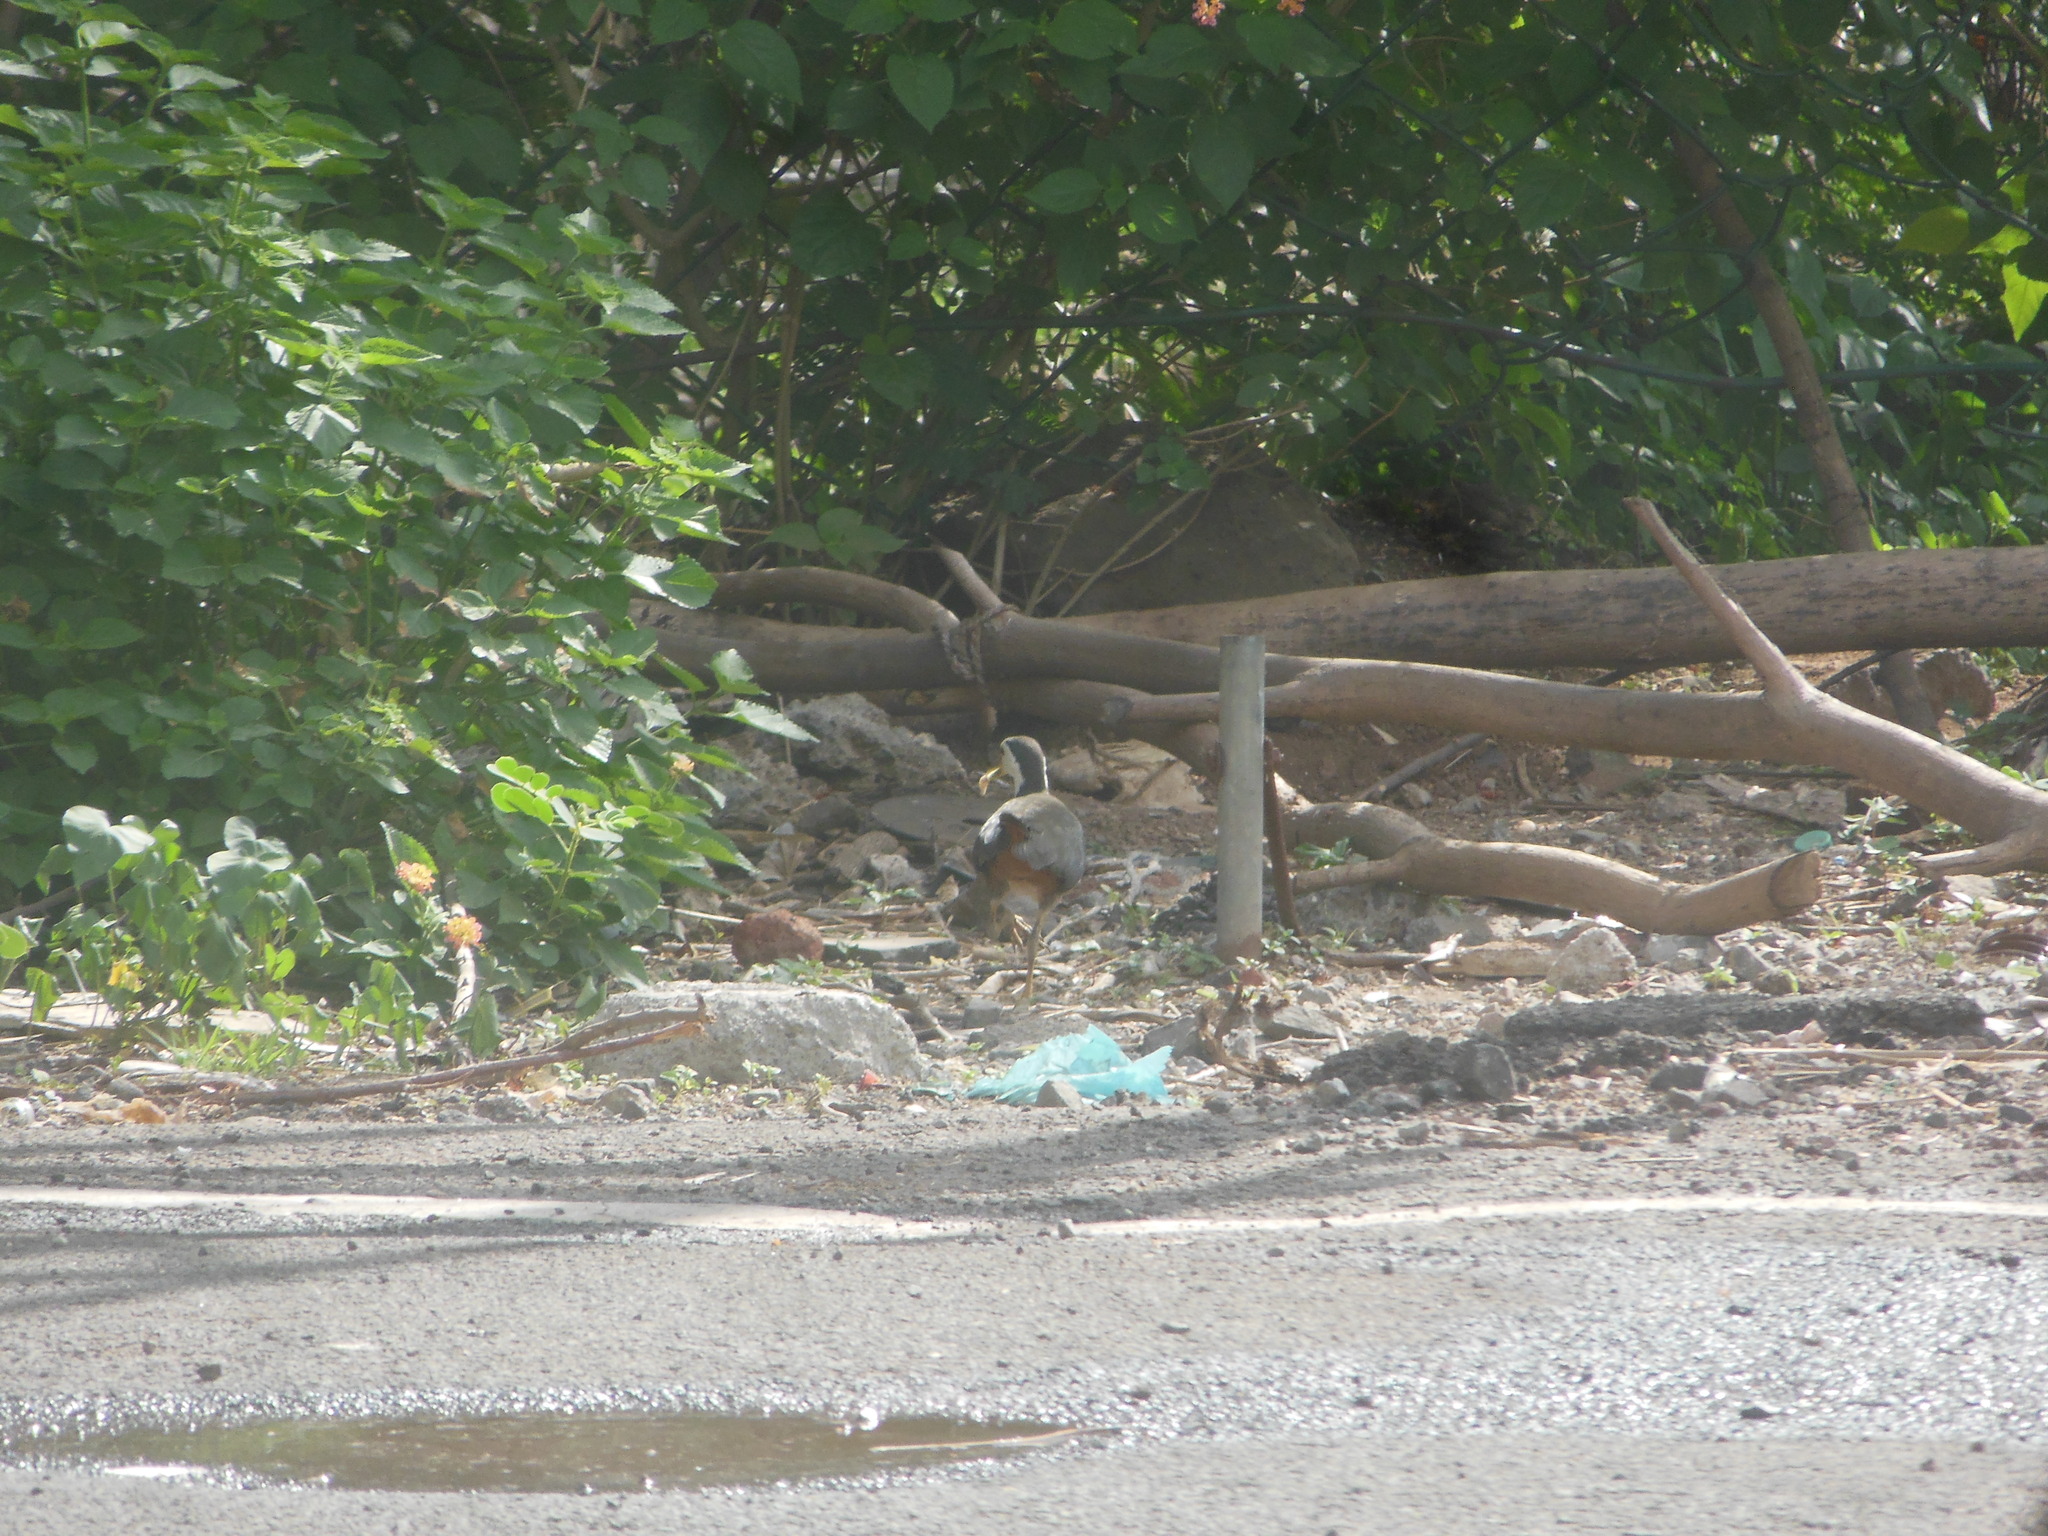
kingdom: Animalia
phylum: Chordata
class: Aves
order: Gruiformes
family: Rallidae
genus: Amaurornis
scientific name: Amaurornis phoenicurus
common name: White-breasted waterhen
